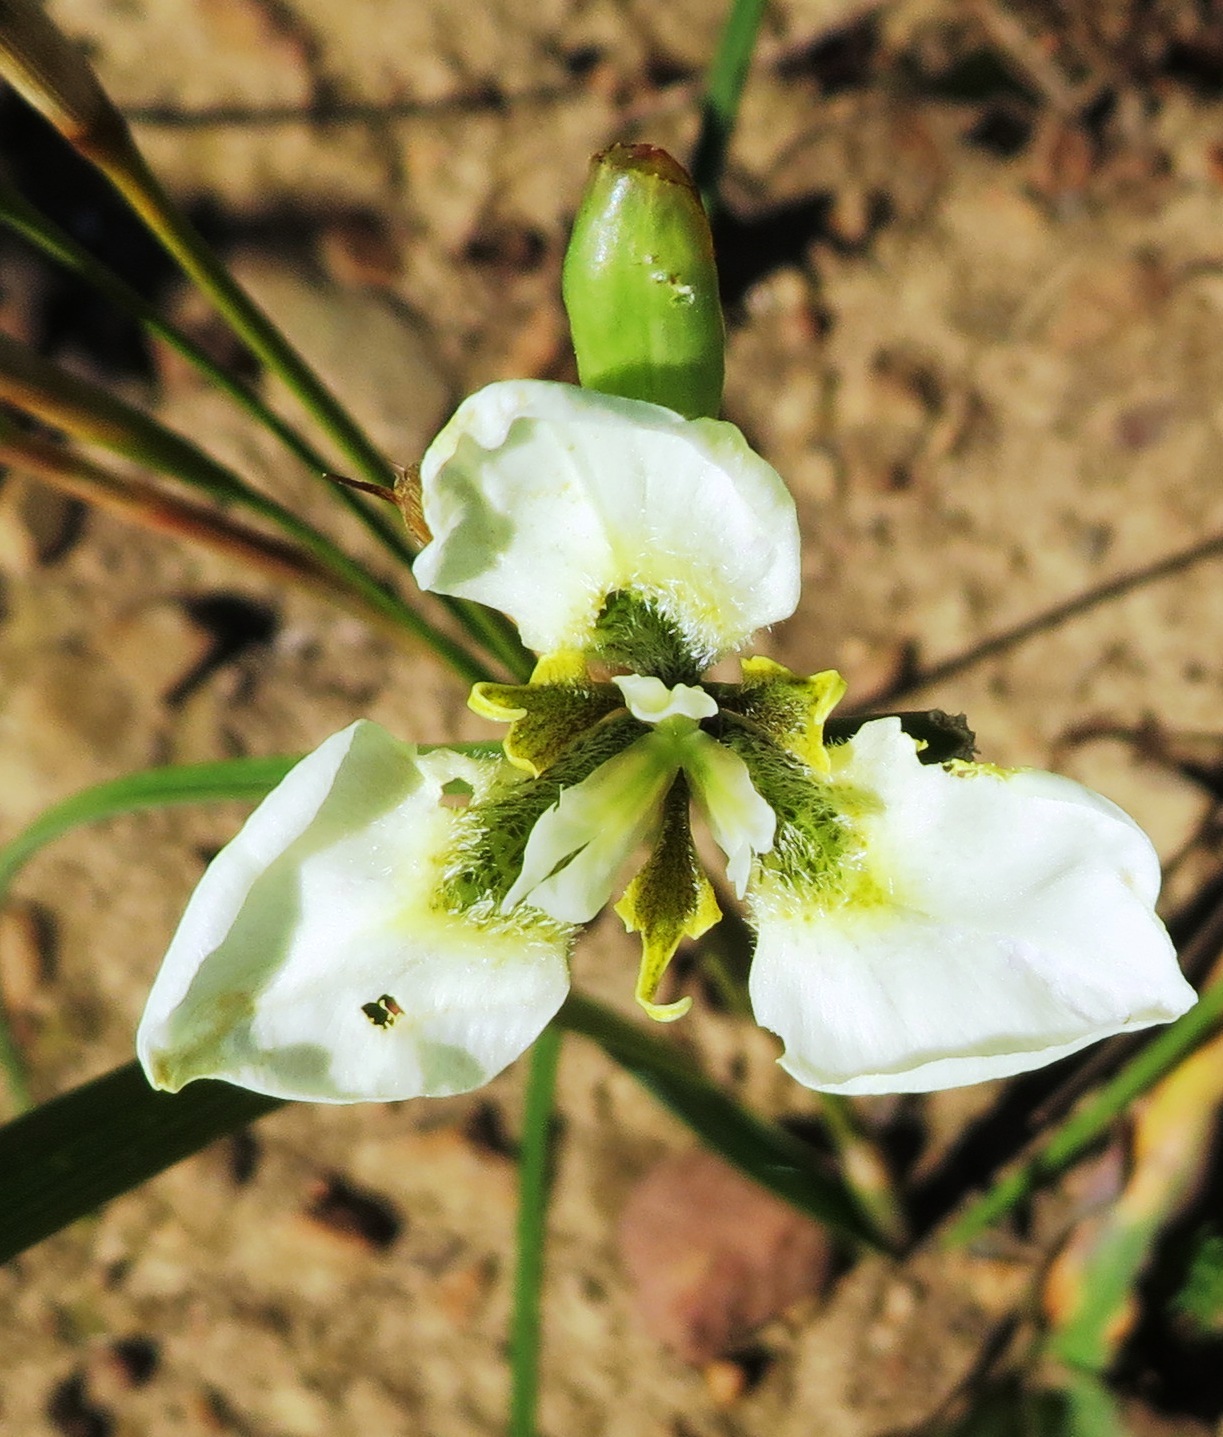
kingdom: Plantae
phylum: Tracheophyta
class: Liliopsida
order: Asparagales
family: Iridaceae
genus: Moraea
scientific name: Moraea tricuspidata
